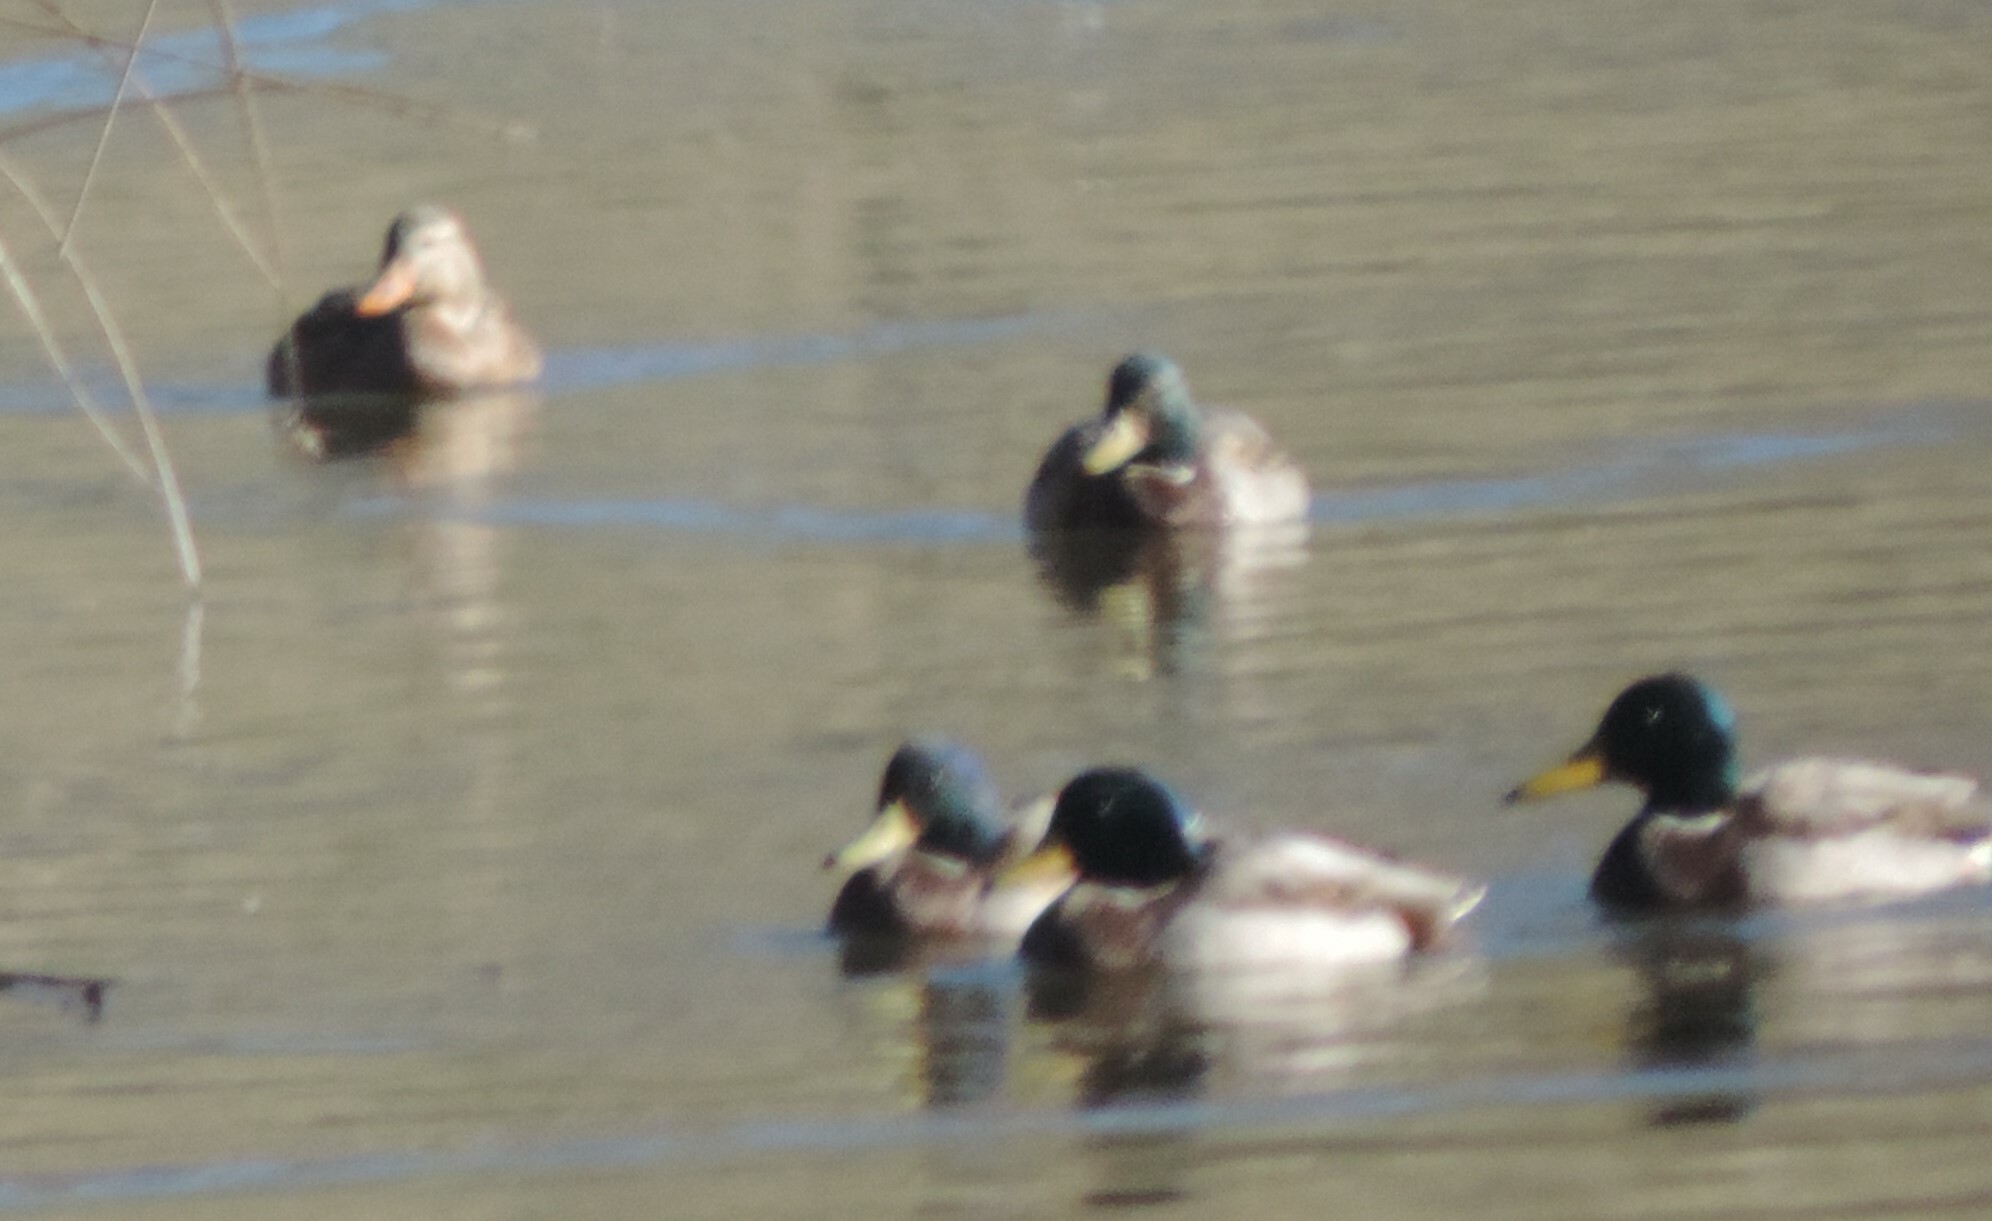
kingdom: Animalia
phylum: Chordata
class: Aves
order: Anseriformes
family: Anatidae
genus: Anas
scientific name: Anas platyrhynchos
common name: Mallard
